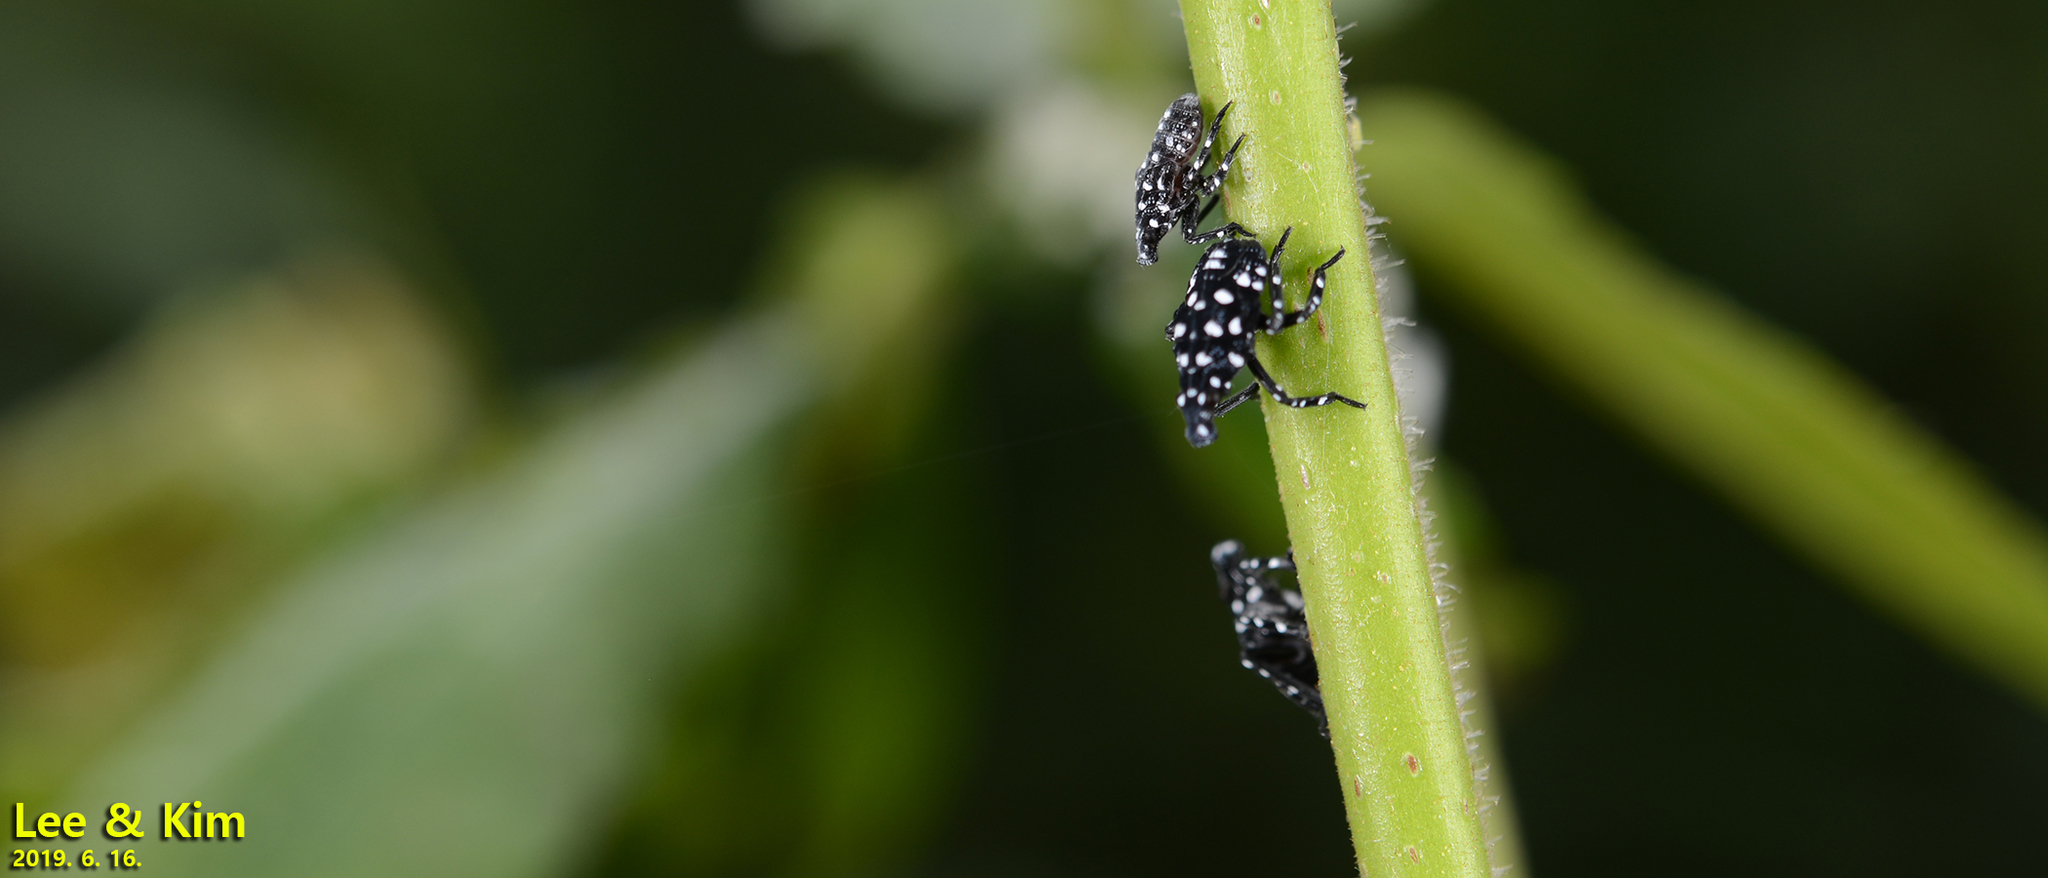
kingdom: Animalia
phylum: Arthropoda
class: Insecta
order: Hemiptera
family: Fulgoridae
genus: Lycorma
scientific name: Lycorma delicatula
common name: Spotted lanternfly
